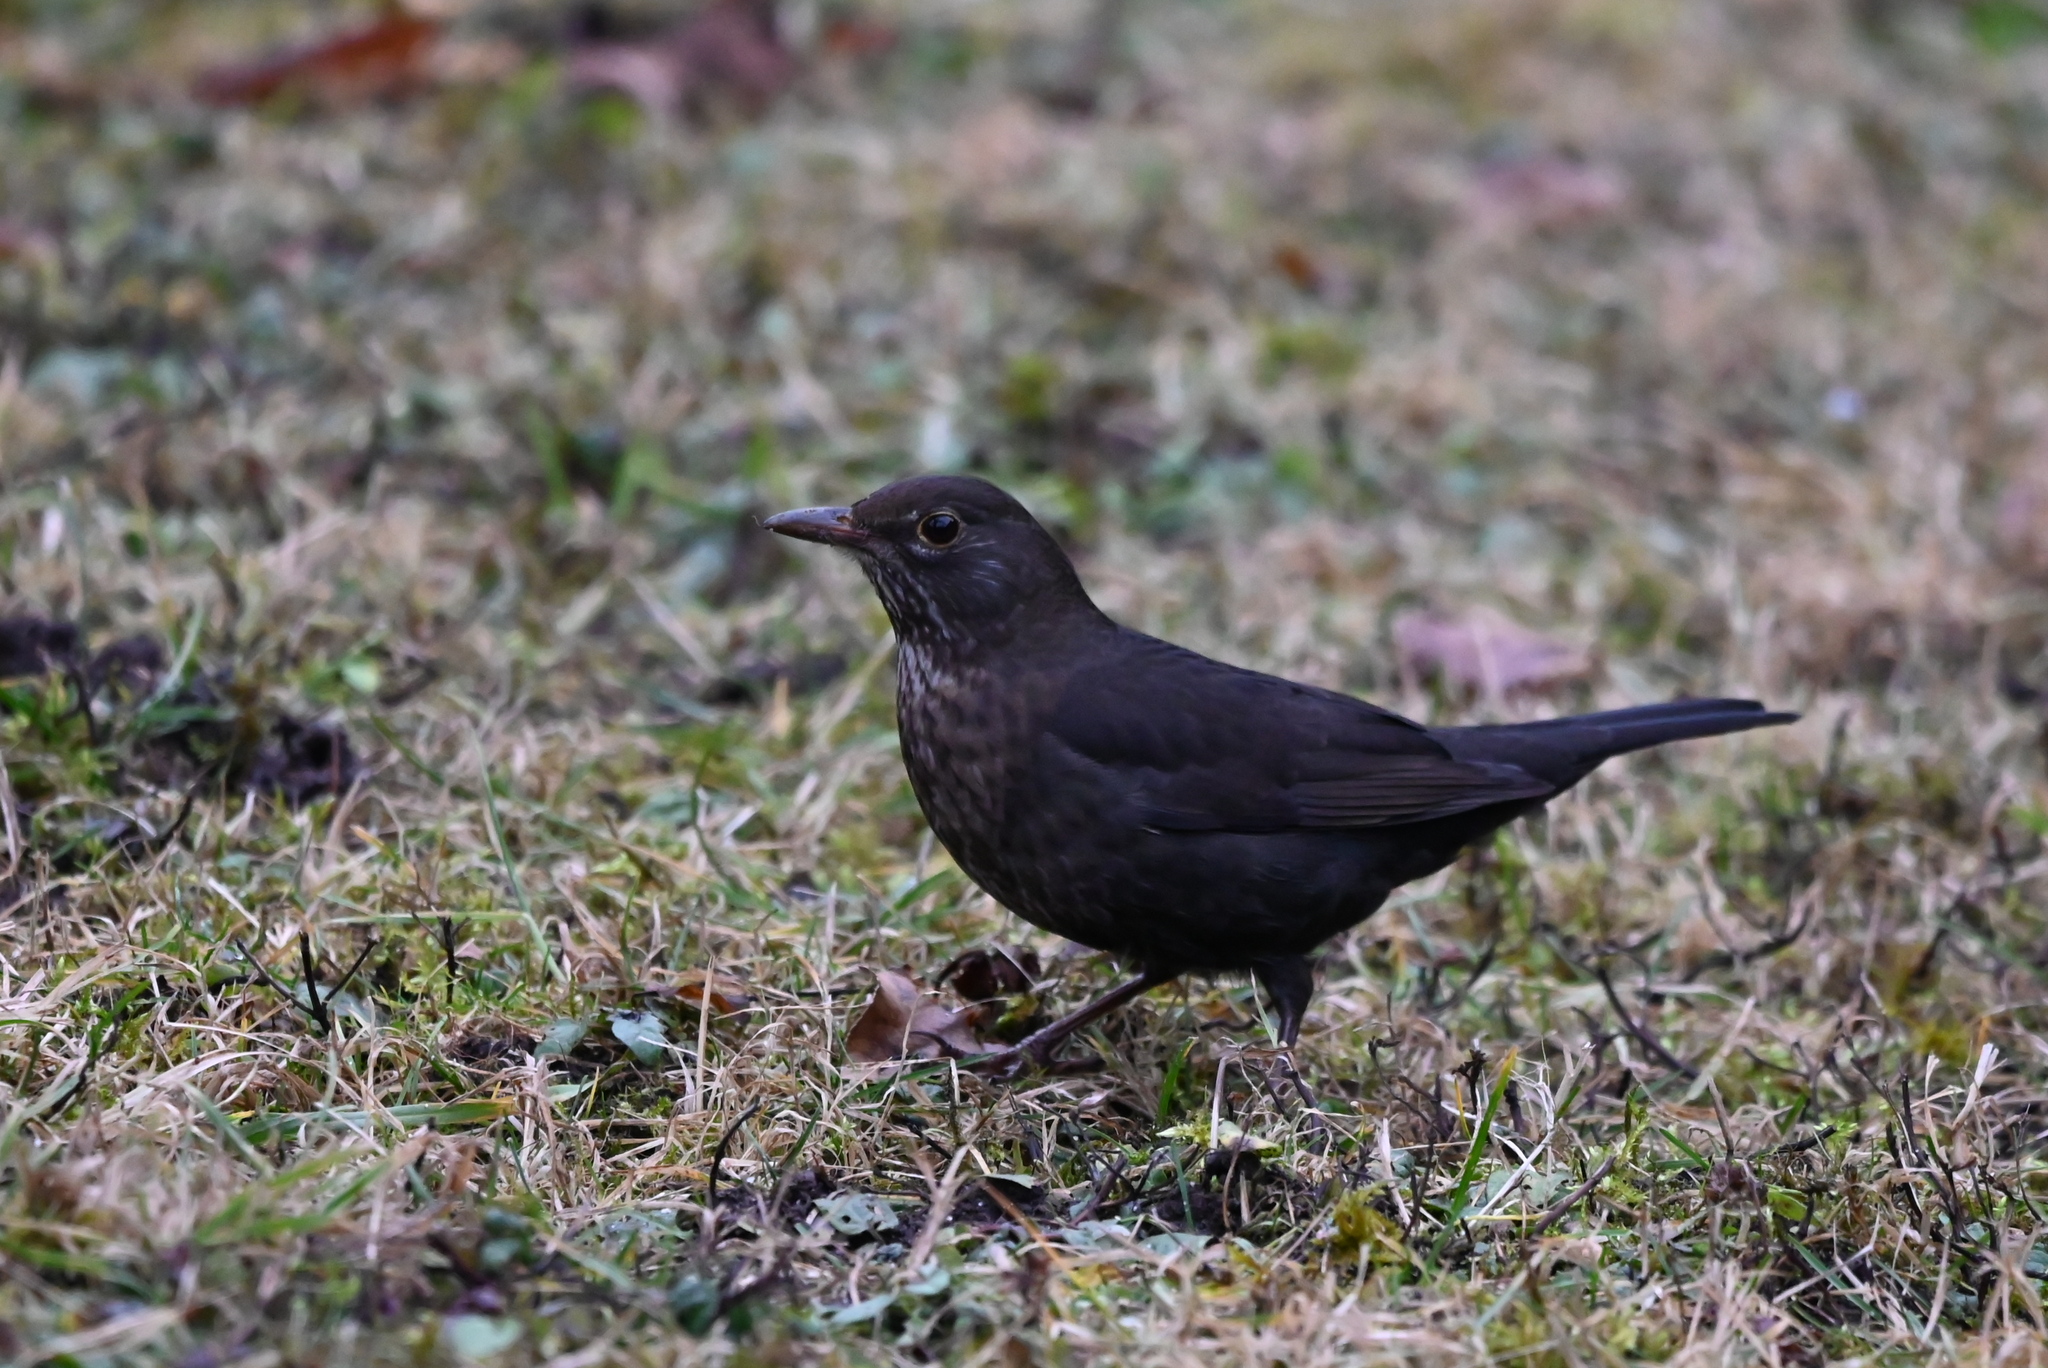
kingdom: Animalia
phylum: Chordata
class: Aves
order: Passeriformes
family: Turdidae
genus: Turdus
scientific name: Turdus merula
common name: Common blackbird
